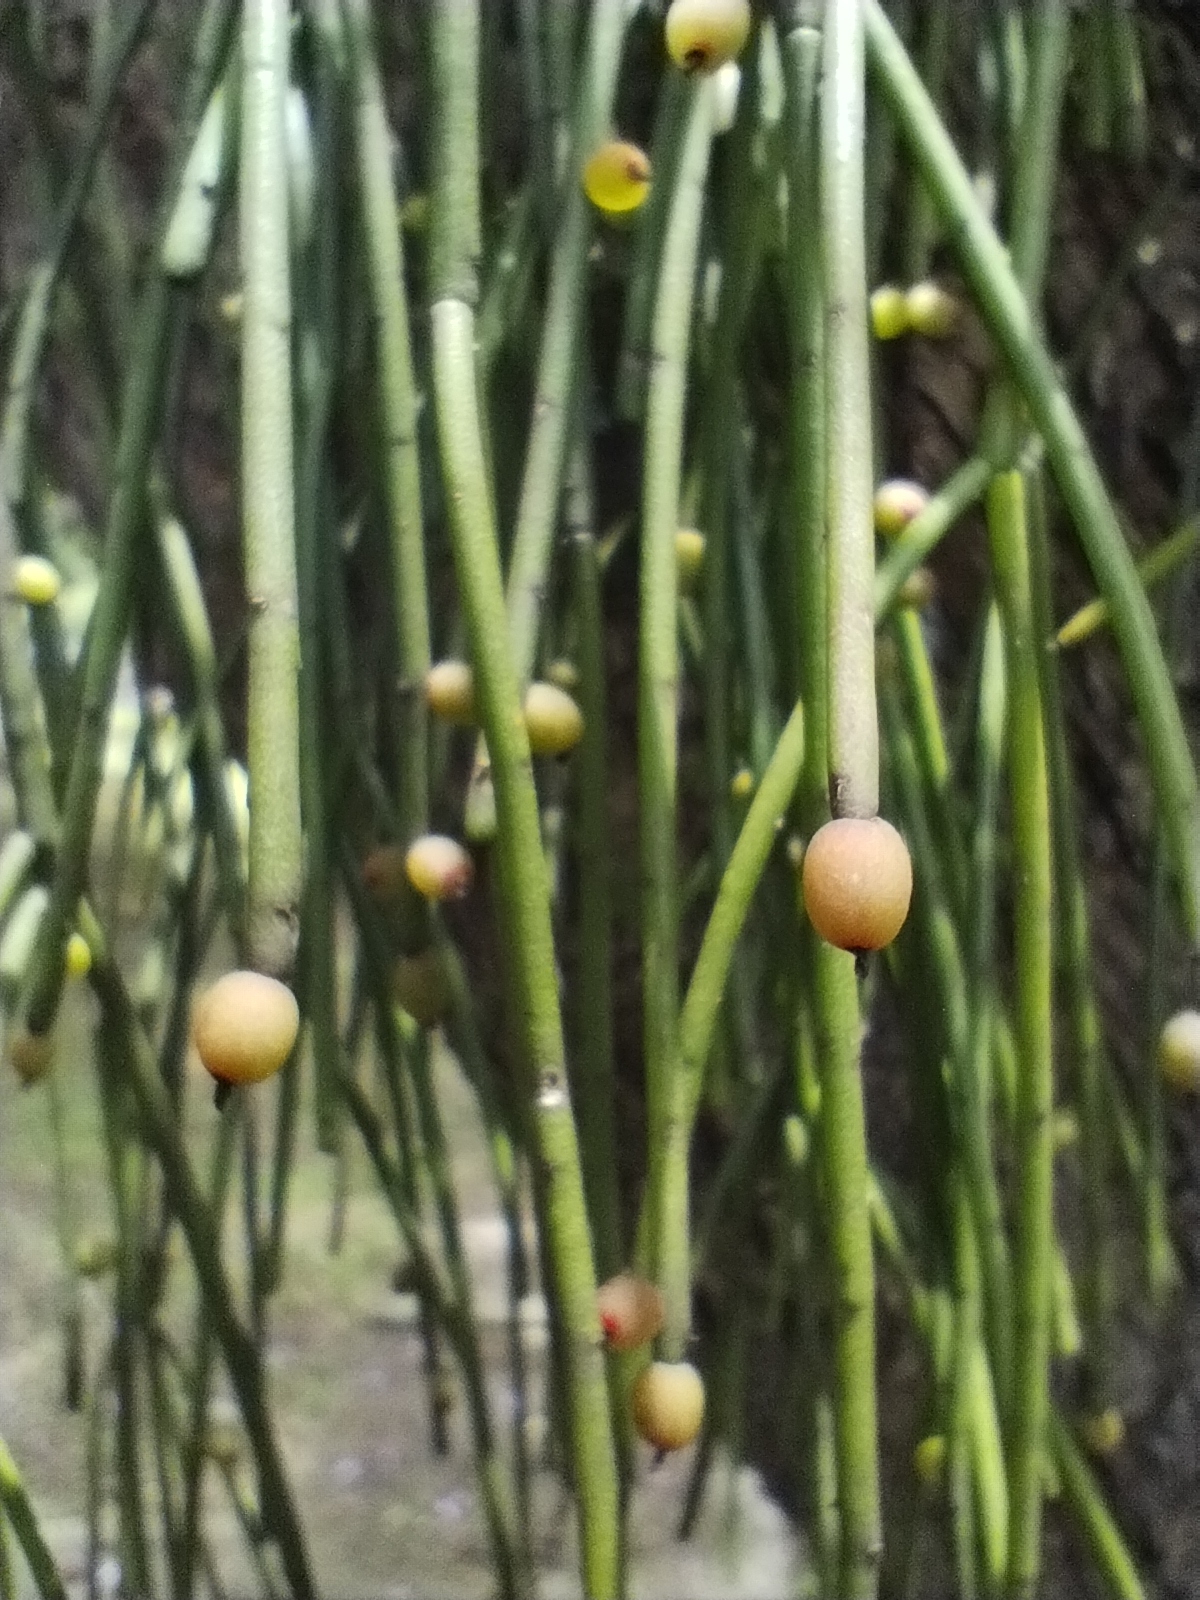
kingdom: Plantae
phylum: Tracheophyta
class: Magnoliopsida
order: Caryophyllales
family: Cactaceae
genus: Rhipsalis
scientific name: Rhipsalis baccifera
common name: Mistletoe cactus
